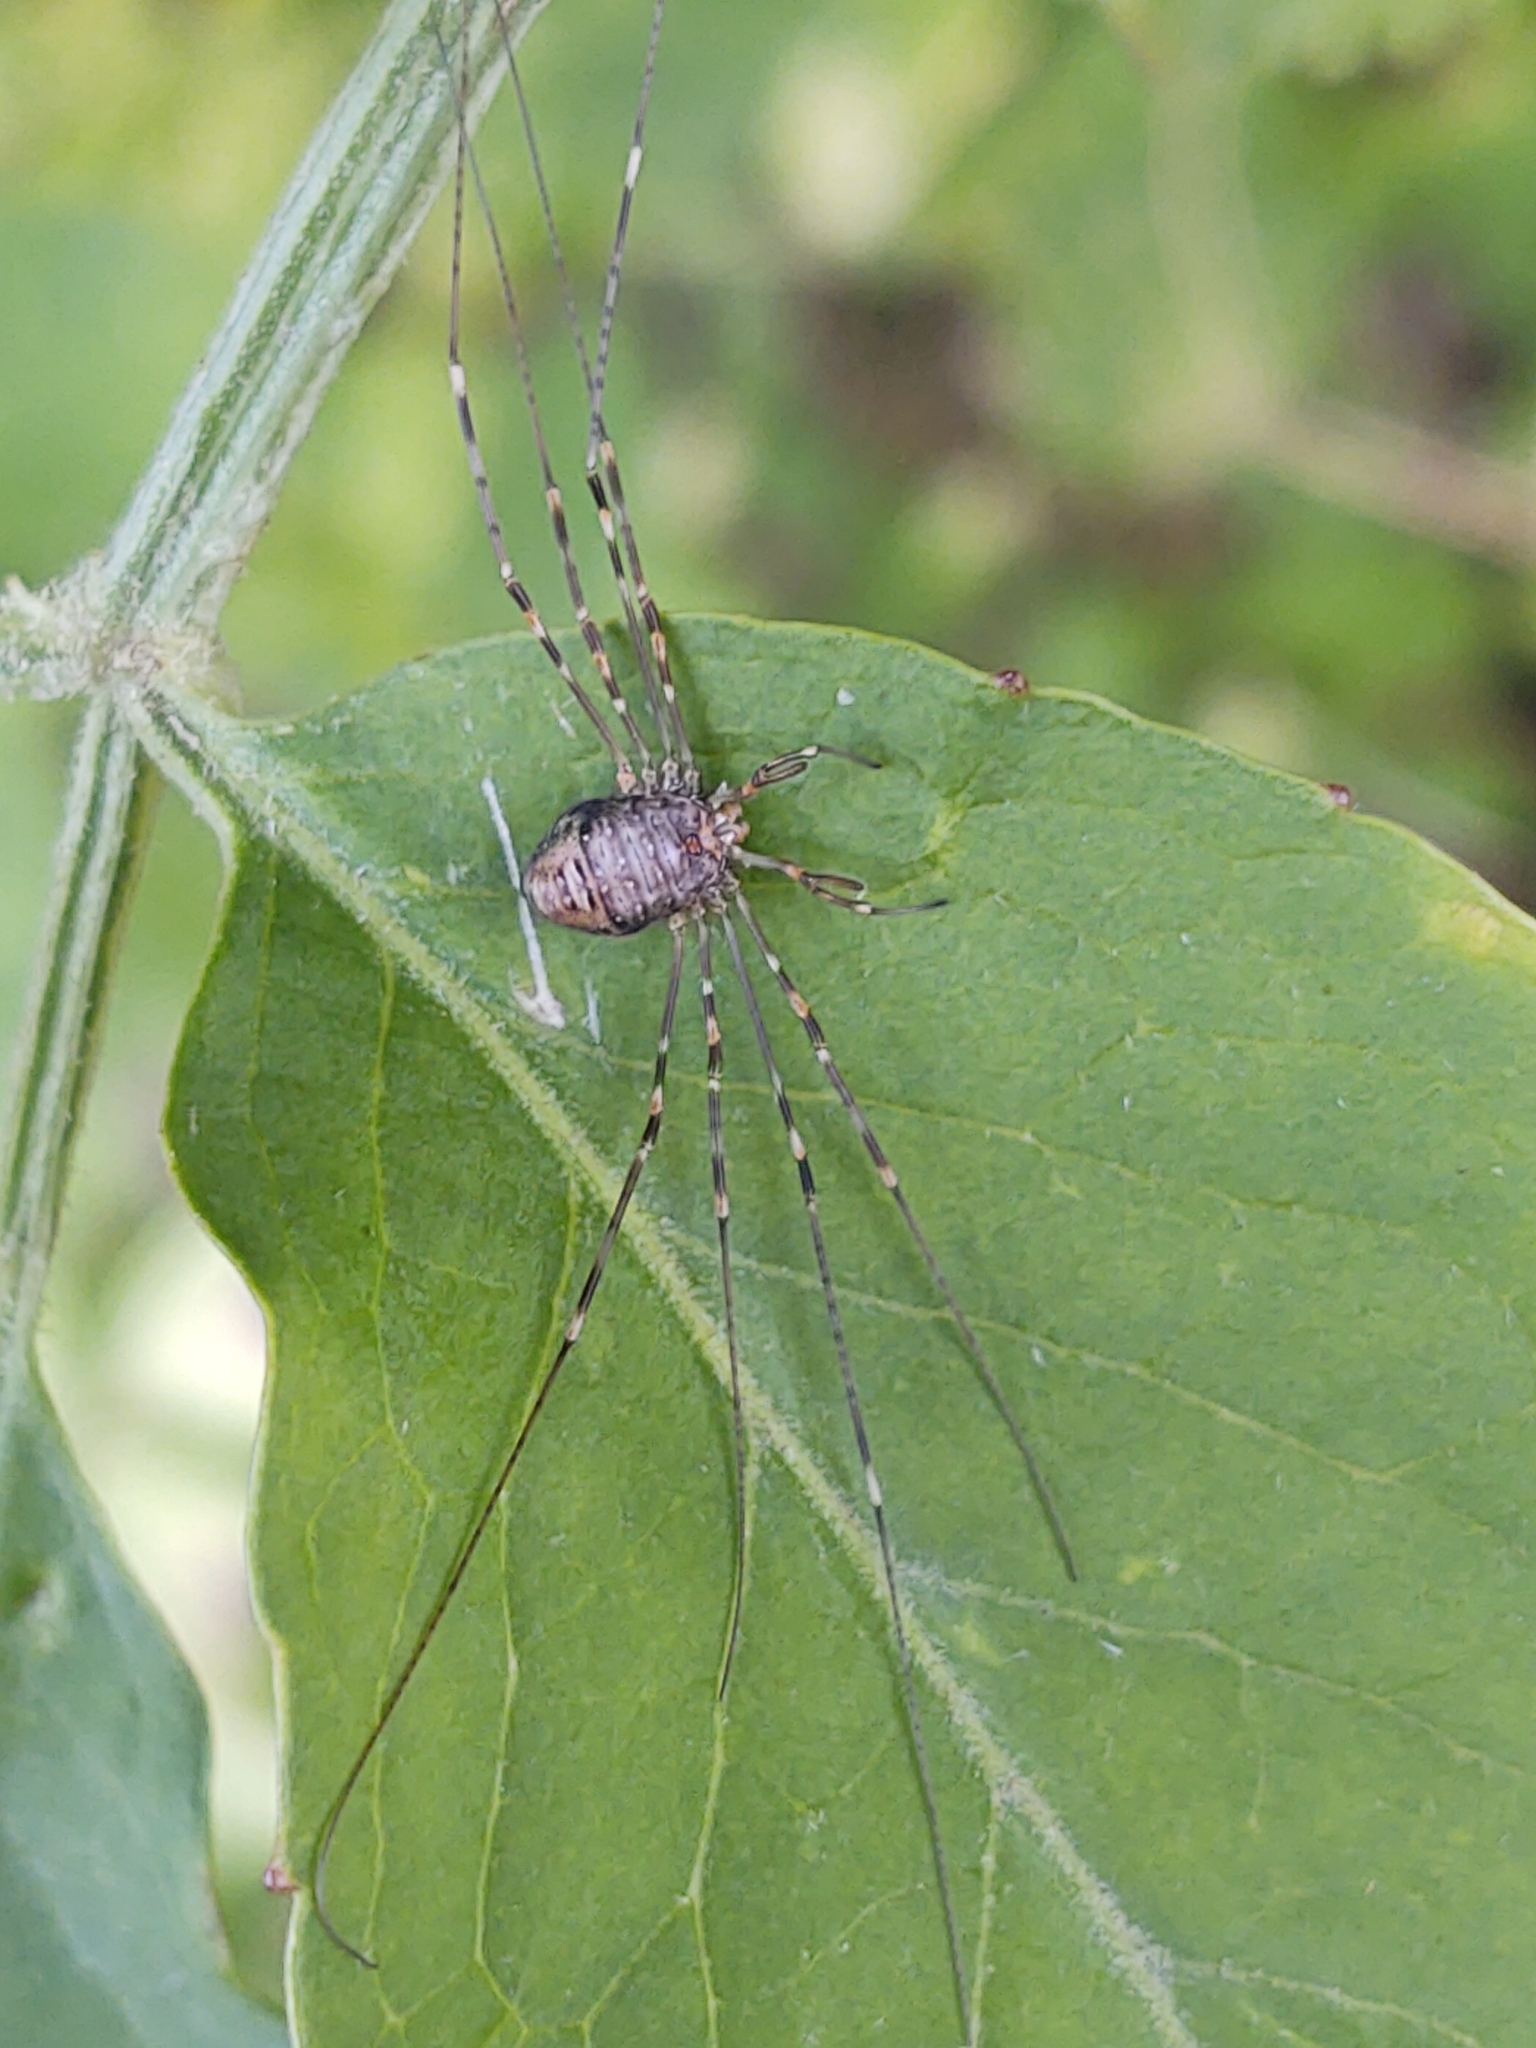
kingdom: Animalia
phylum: Arthropoda
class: Arachnida
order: Opiliones
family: Phalangiidae
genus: Dicranopalpus
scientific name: Dicranopalpus ramosus
